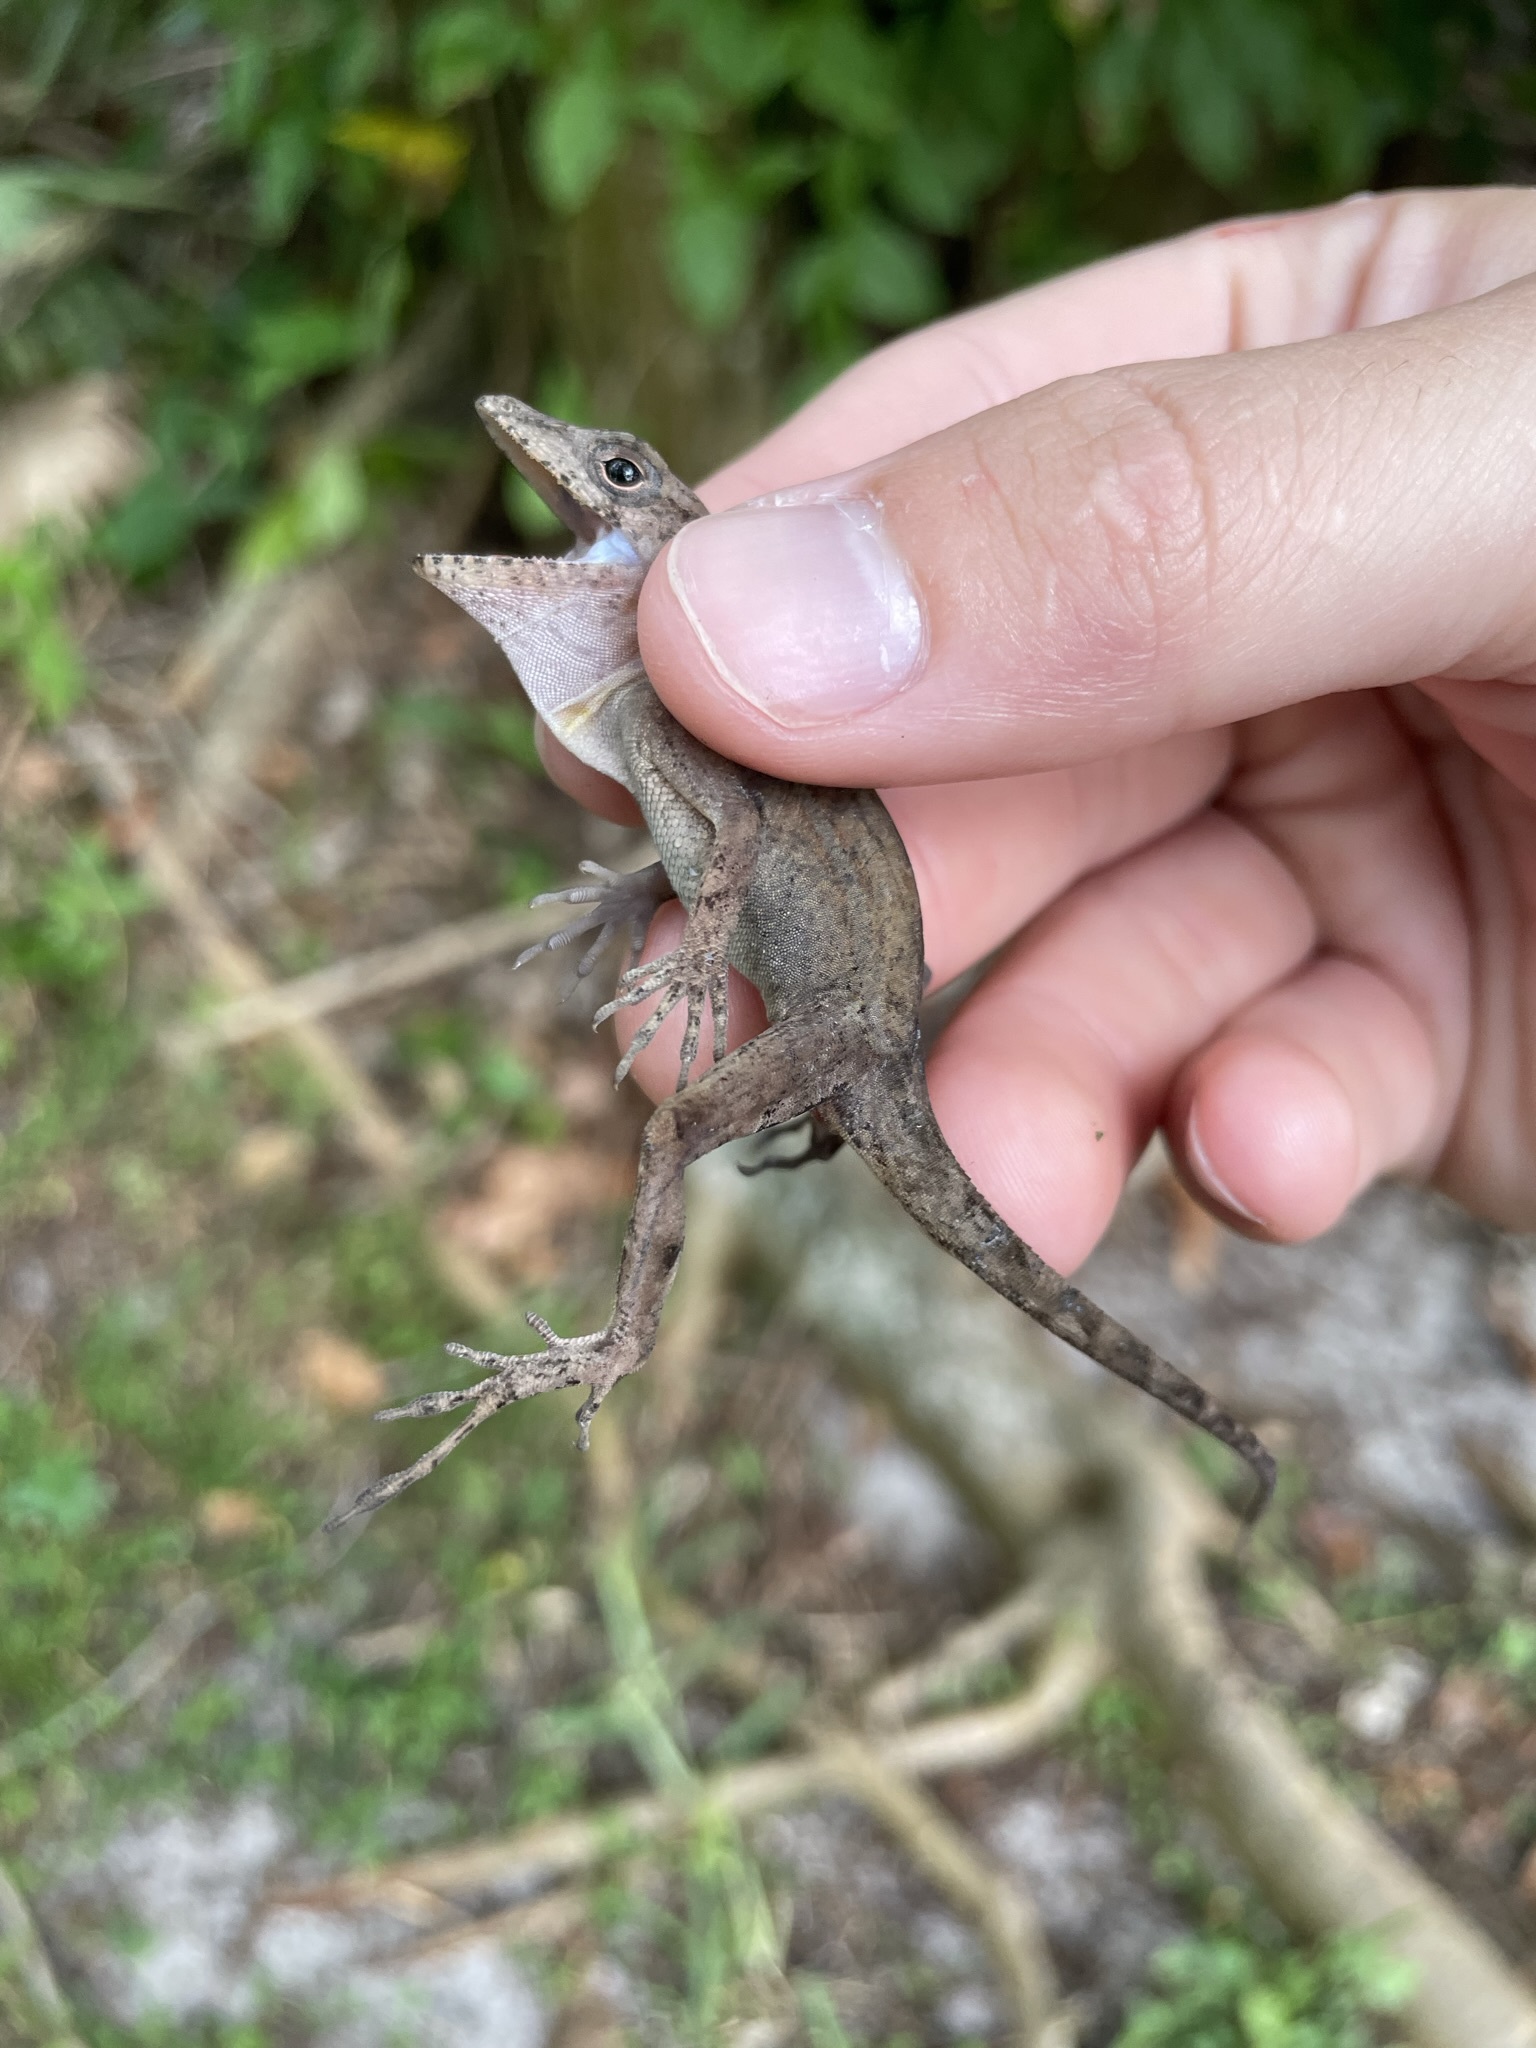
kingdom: Animalia
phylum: Chordata
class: Squamata
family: Dactyloidae
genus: Anolis
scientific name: Anolis cybotes
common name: Large-headed anole
